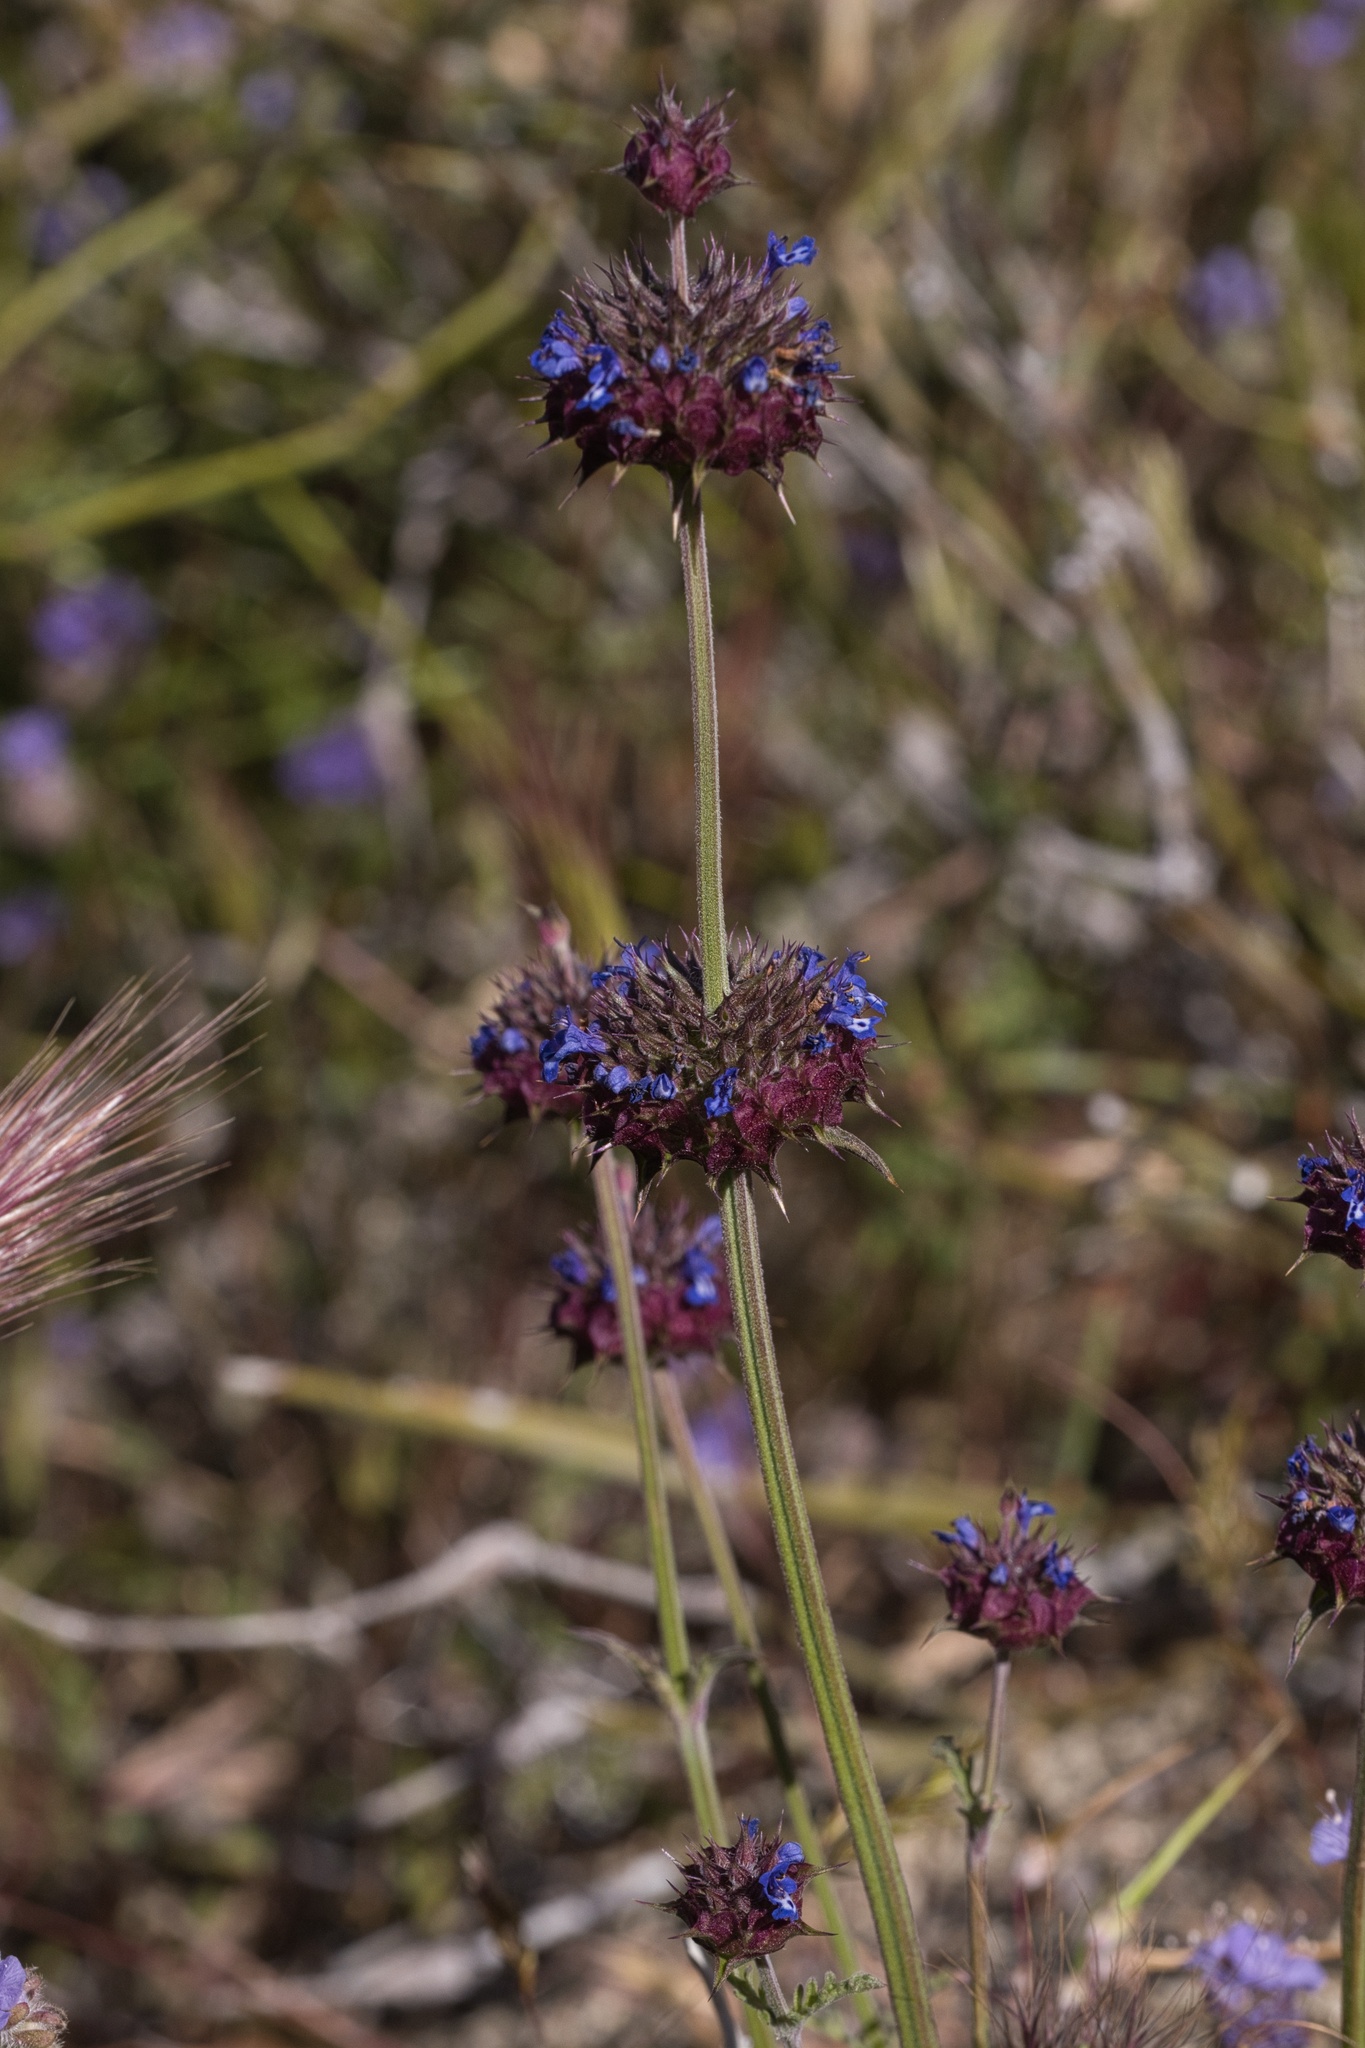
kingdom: Plantae
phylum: Tracheophyta
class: Magnoliopsida
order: Lamiales
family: Lamiaceae
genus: Salvia
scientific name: Salvia columbariae
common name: Chia
